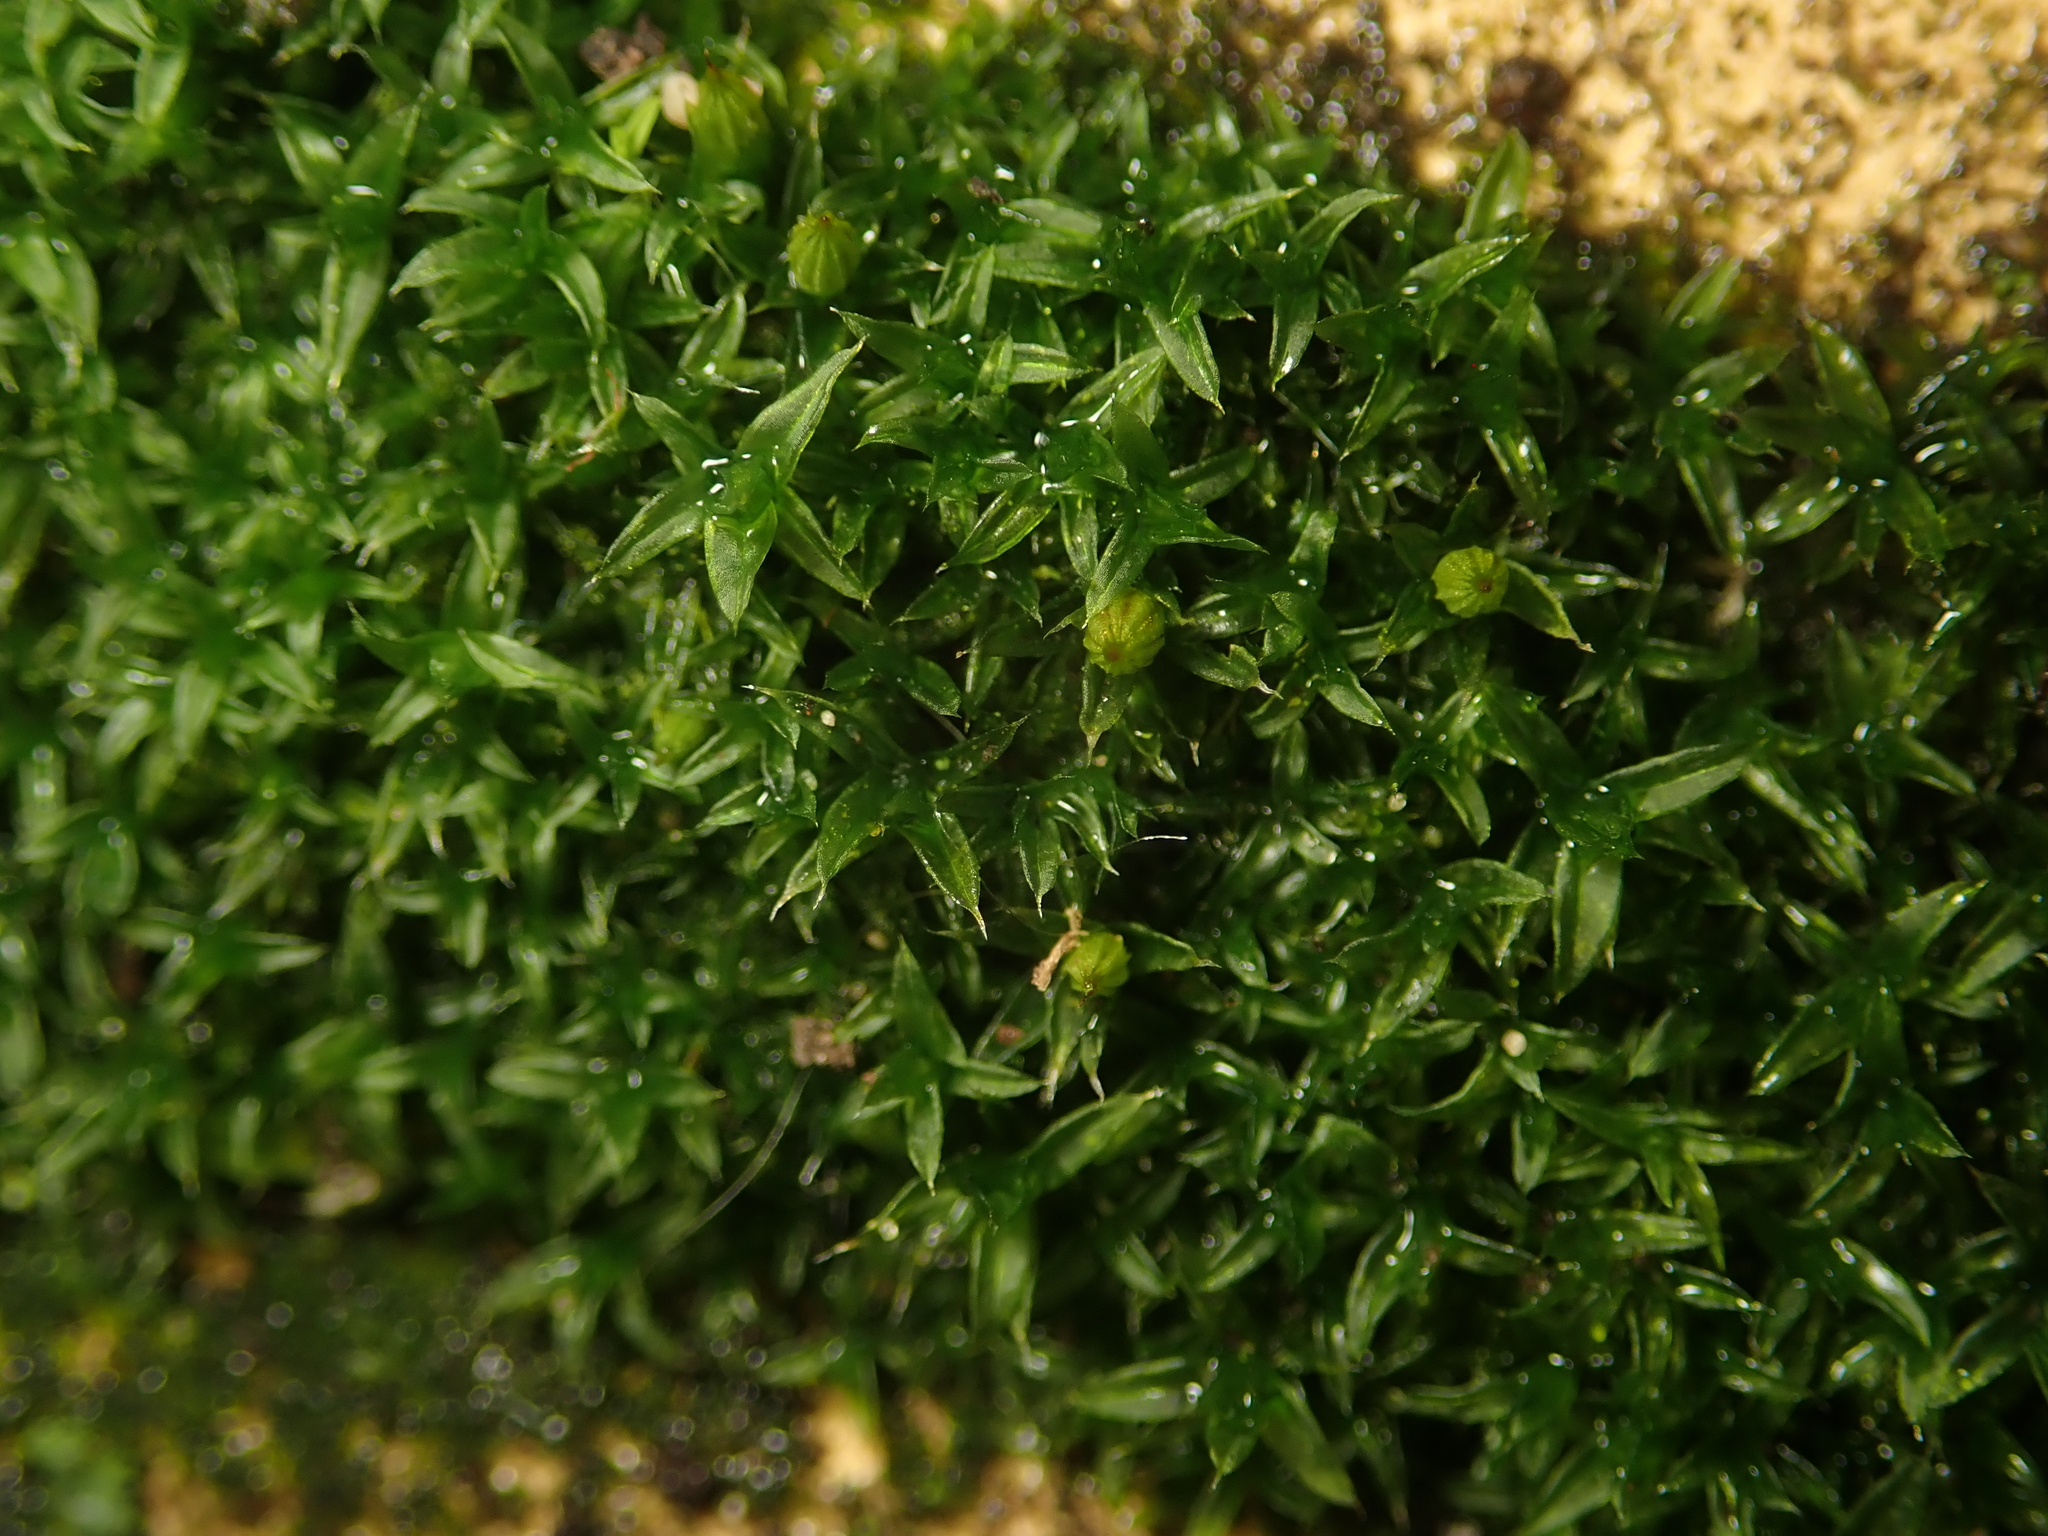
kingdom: Plantae
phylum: Bryophyta
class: Bryopsida
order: Orthotrichales
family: Orthotrichaceae
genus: Orthotrichum
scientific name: Orthotrichum diaphanum
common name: White-tipped bristle-moss
